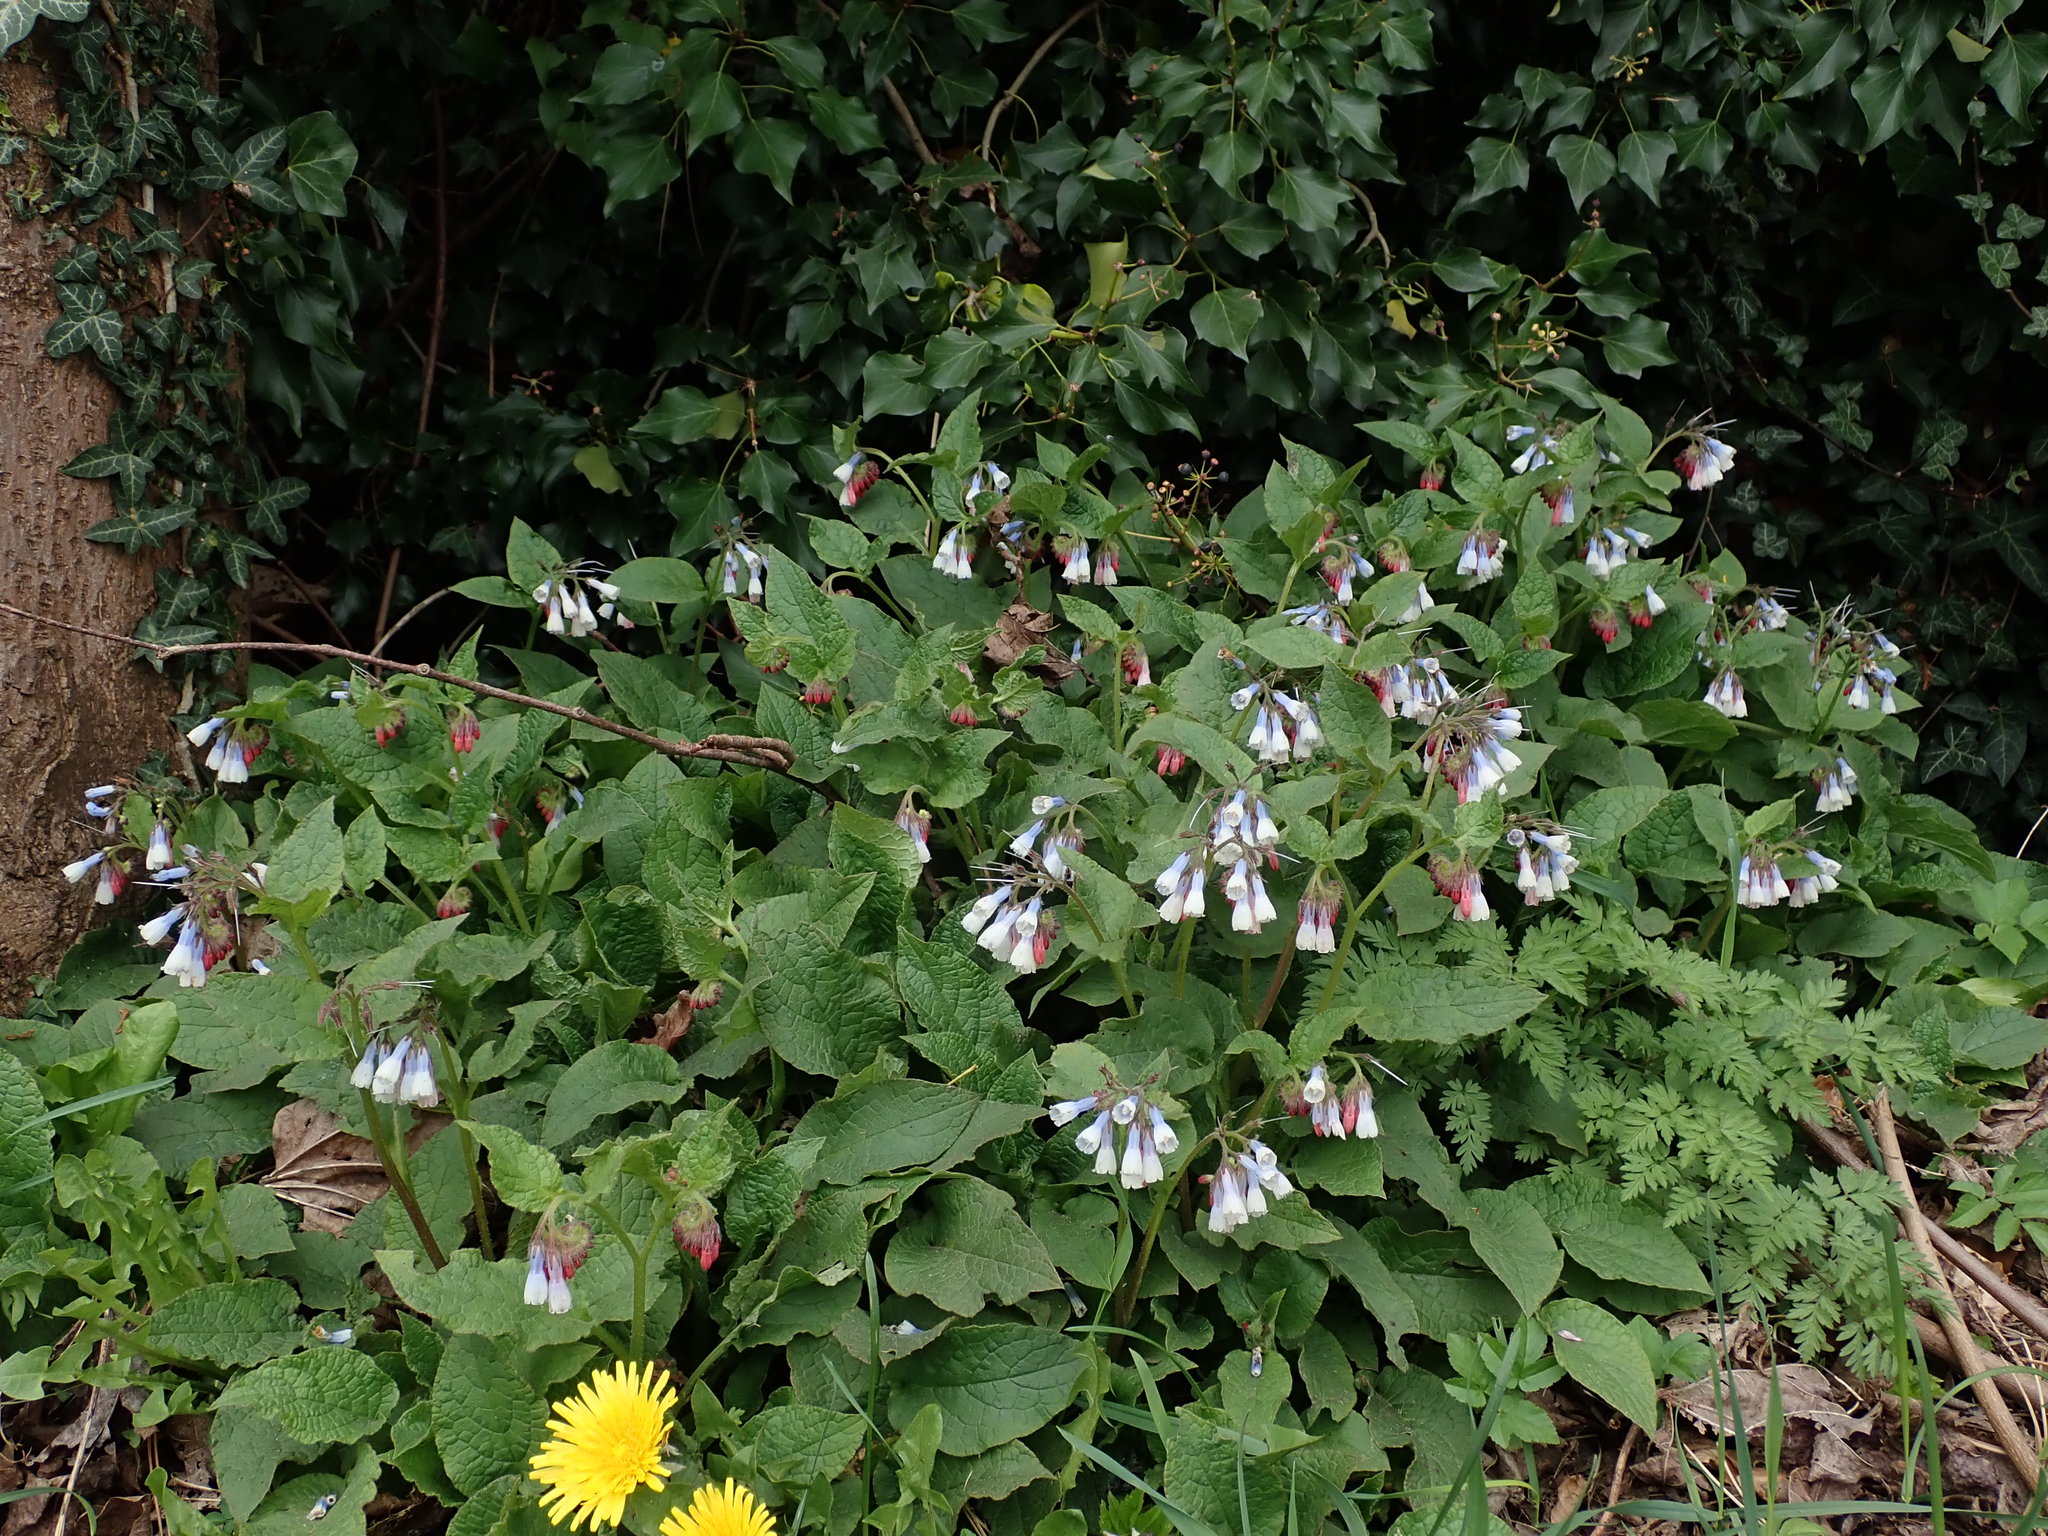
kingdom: Plantae
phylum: Tracheophyta
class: Magnoliopsida
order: Boraginales
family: Boraginaceae
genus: Symphytum
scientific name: Symphytum hidcotense
